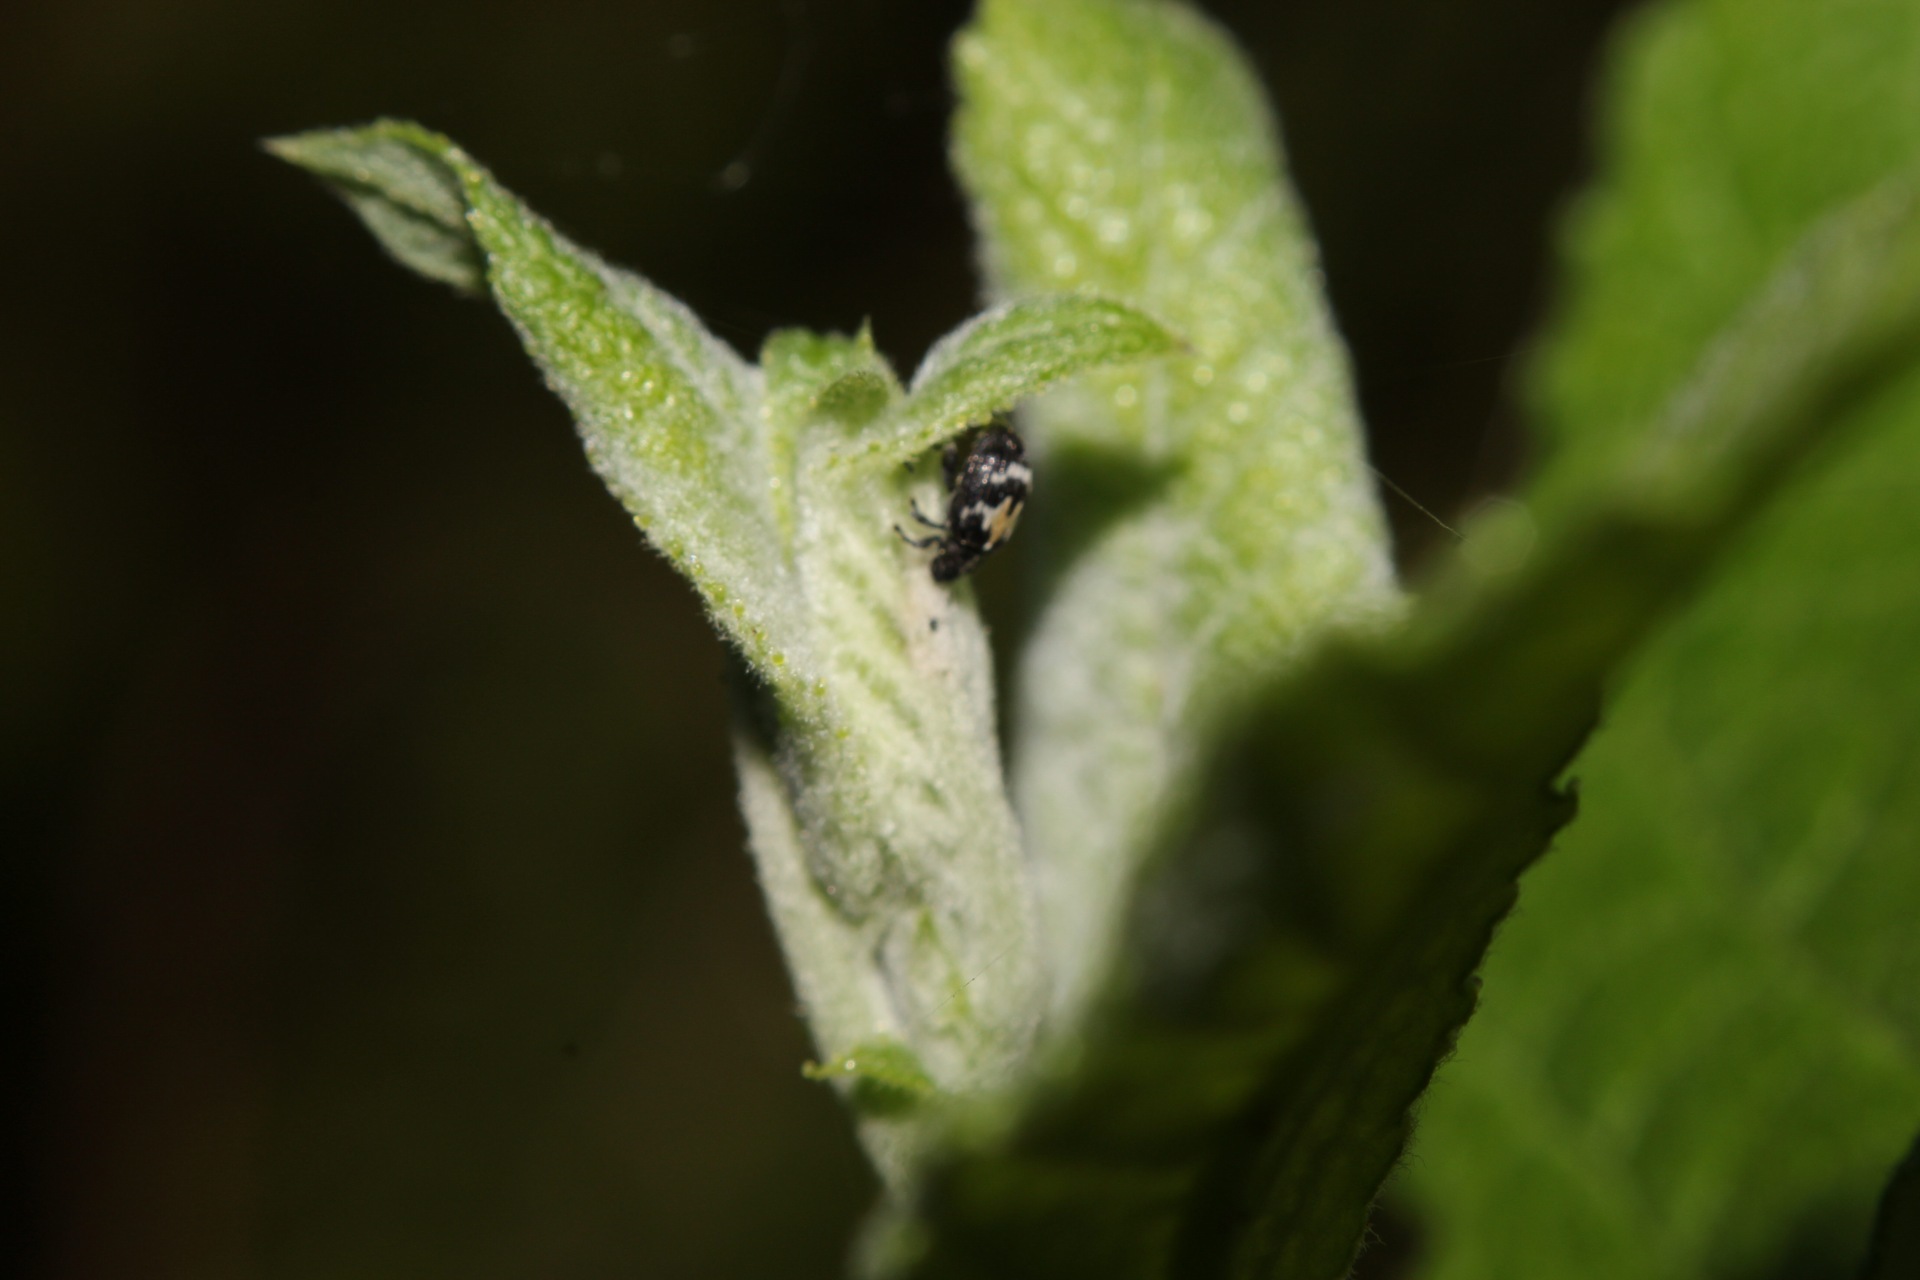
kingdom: Animalia
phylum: Arthropoda
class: Insecta
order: Coleoptera
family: Curculionidae
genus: Tachyerges
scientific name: Tachyerges salicis
